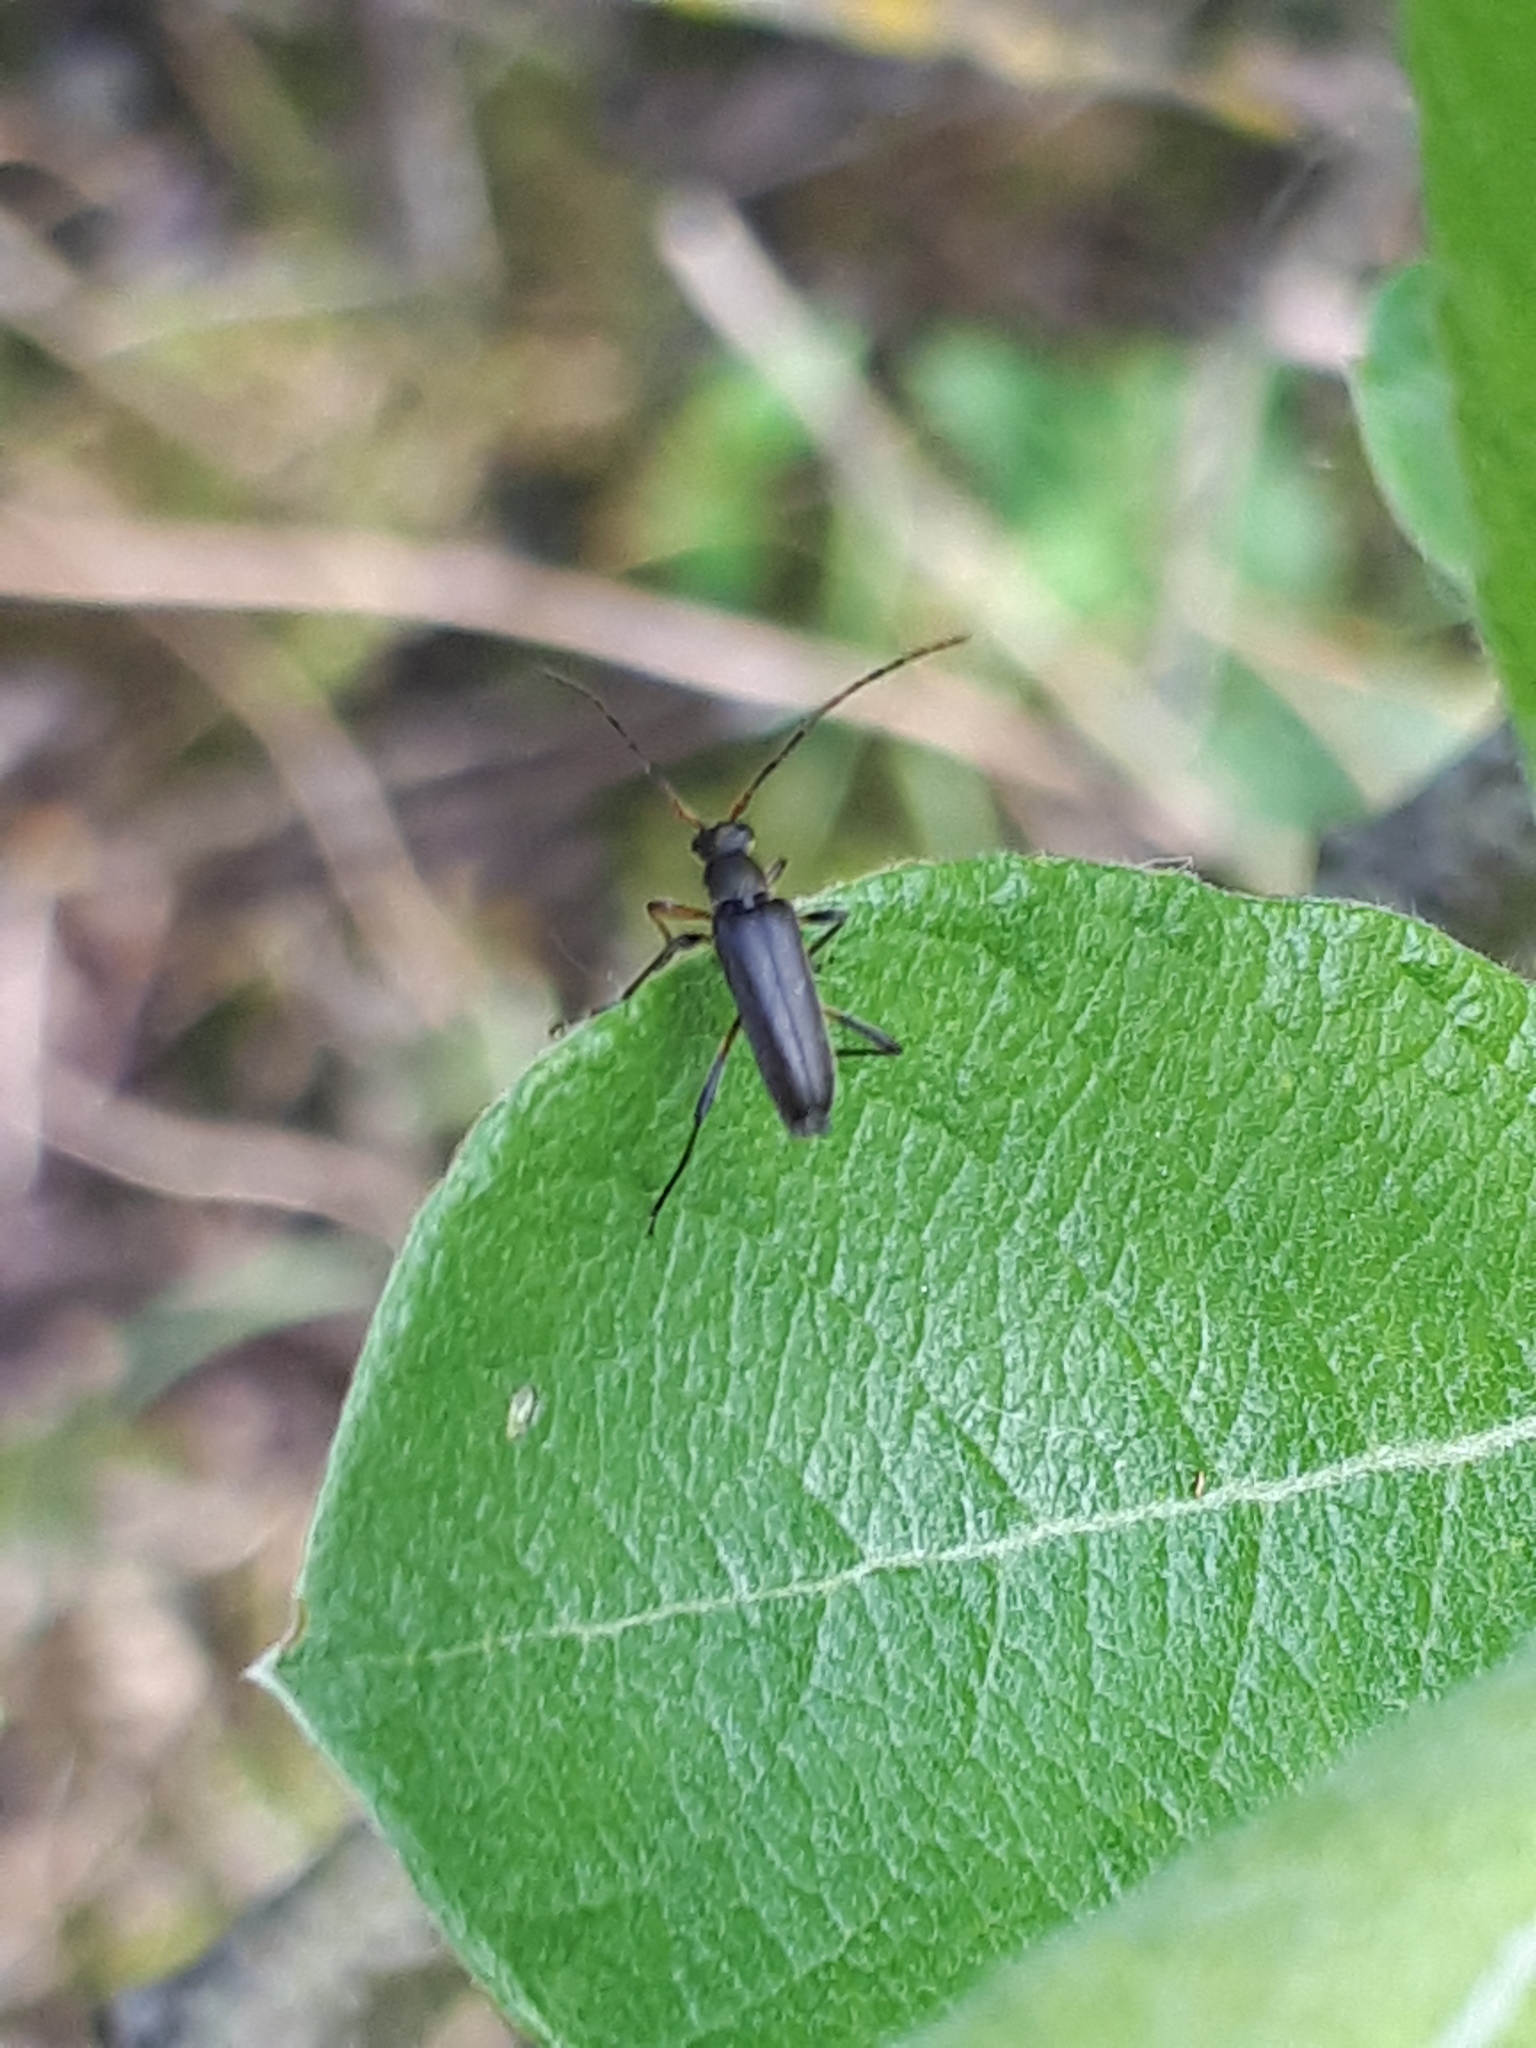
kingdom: Animalia
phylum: Arthropoda
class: Insecta
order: Coleoptera
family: Cerambycidae
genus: Grammoptera
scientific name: Grammoptera ruficornis
